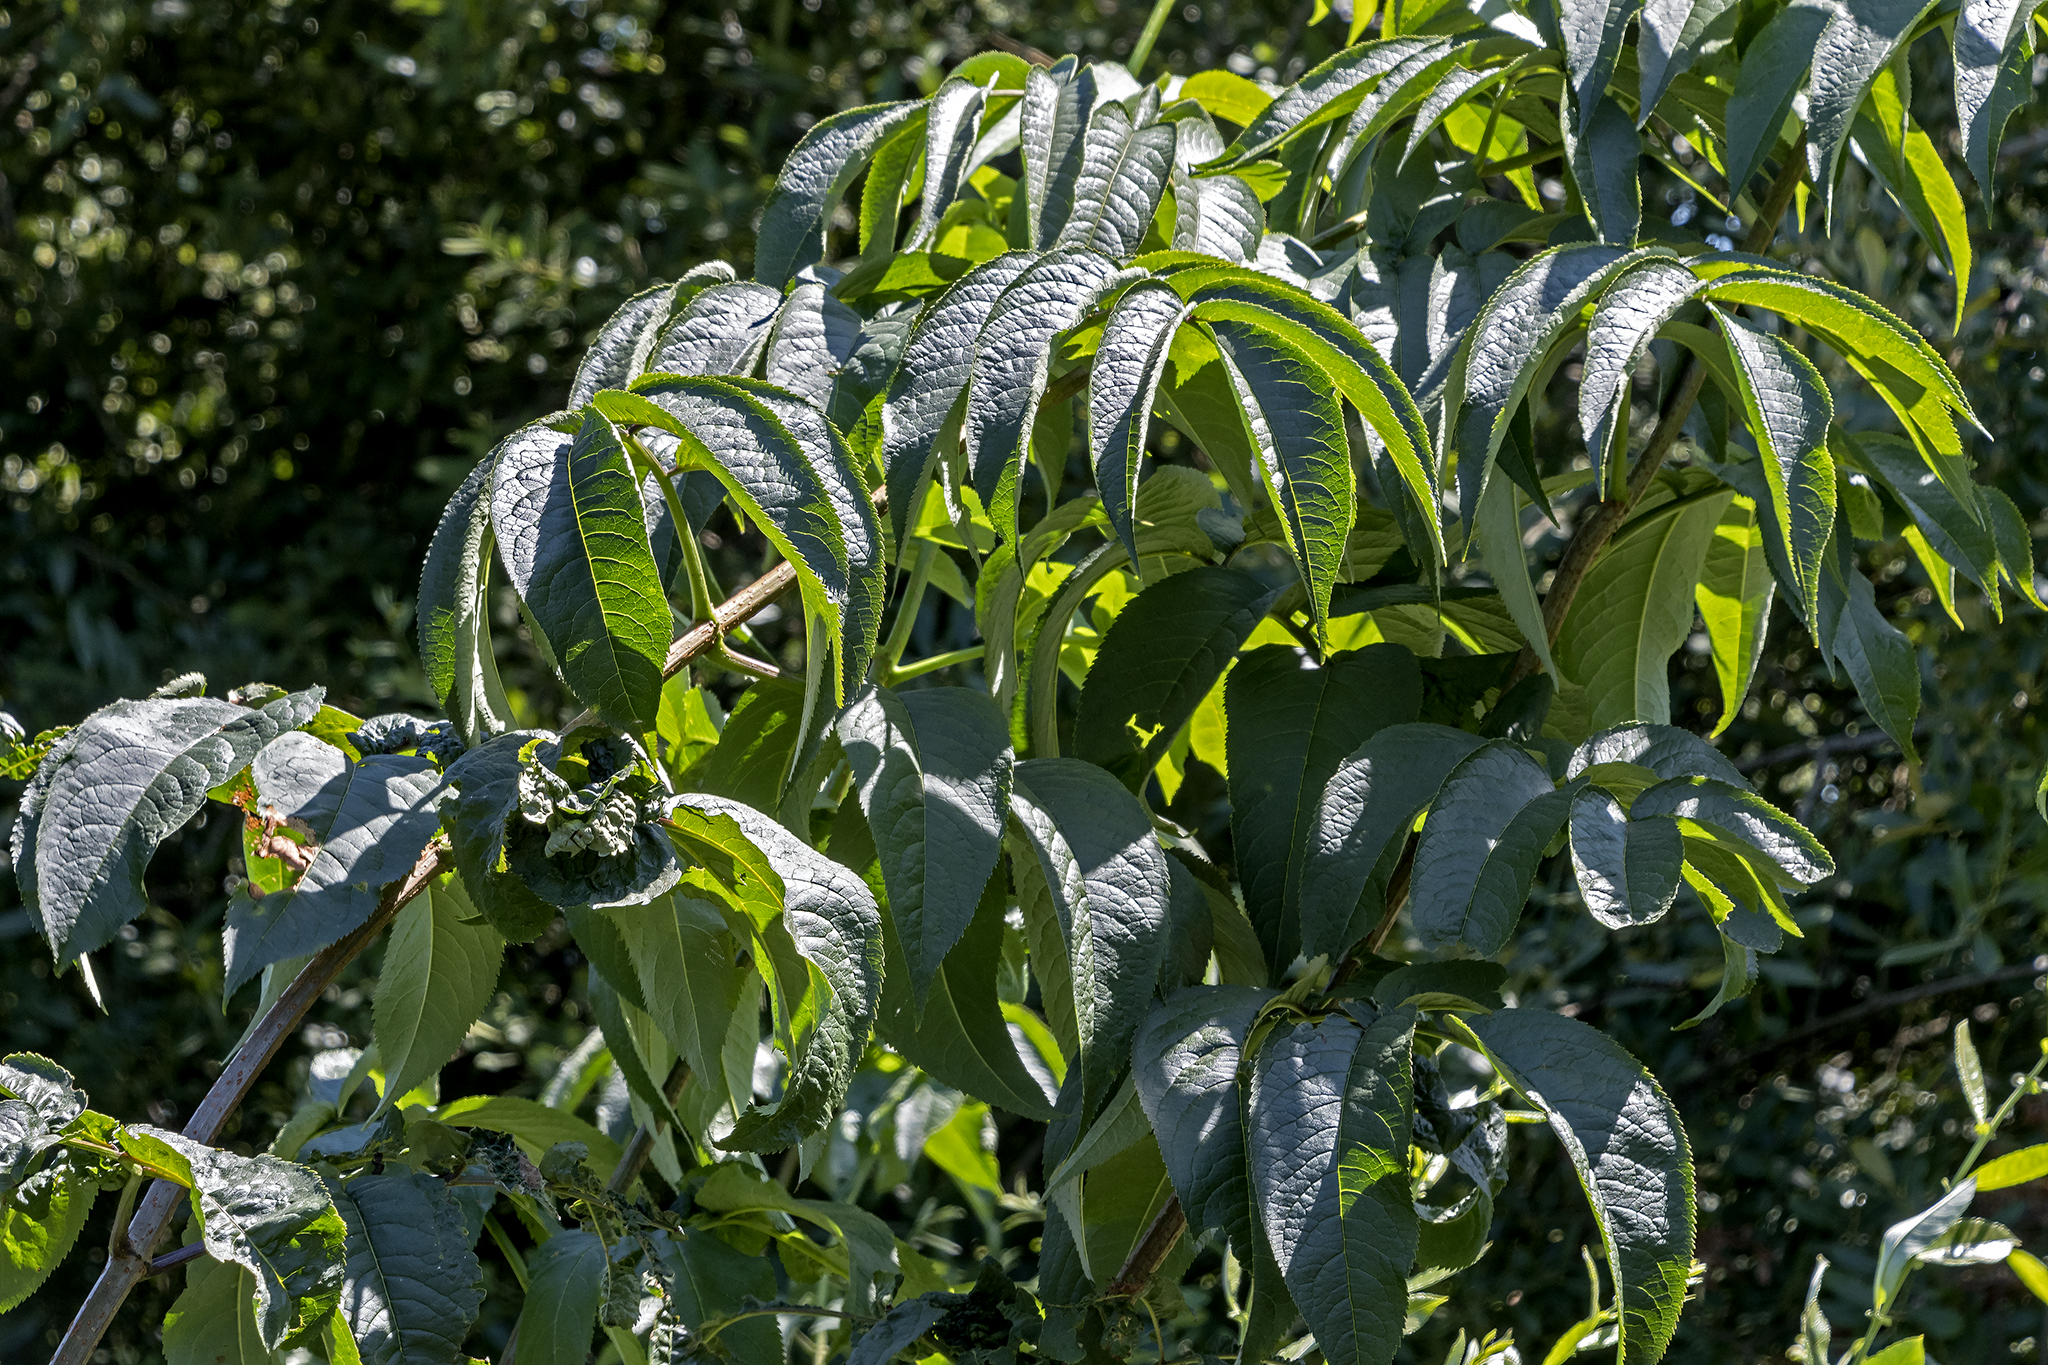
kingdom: Plantae
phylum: Tracheophyta
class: Magnoliopsida
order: Dipsacales
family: Viburnaceae
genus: Sambucus
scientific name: Sambucus racemosa
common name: Red-berried elder
